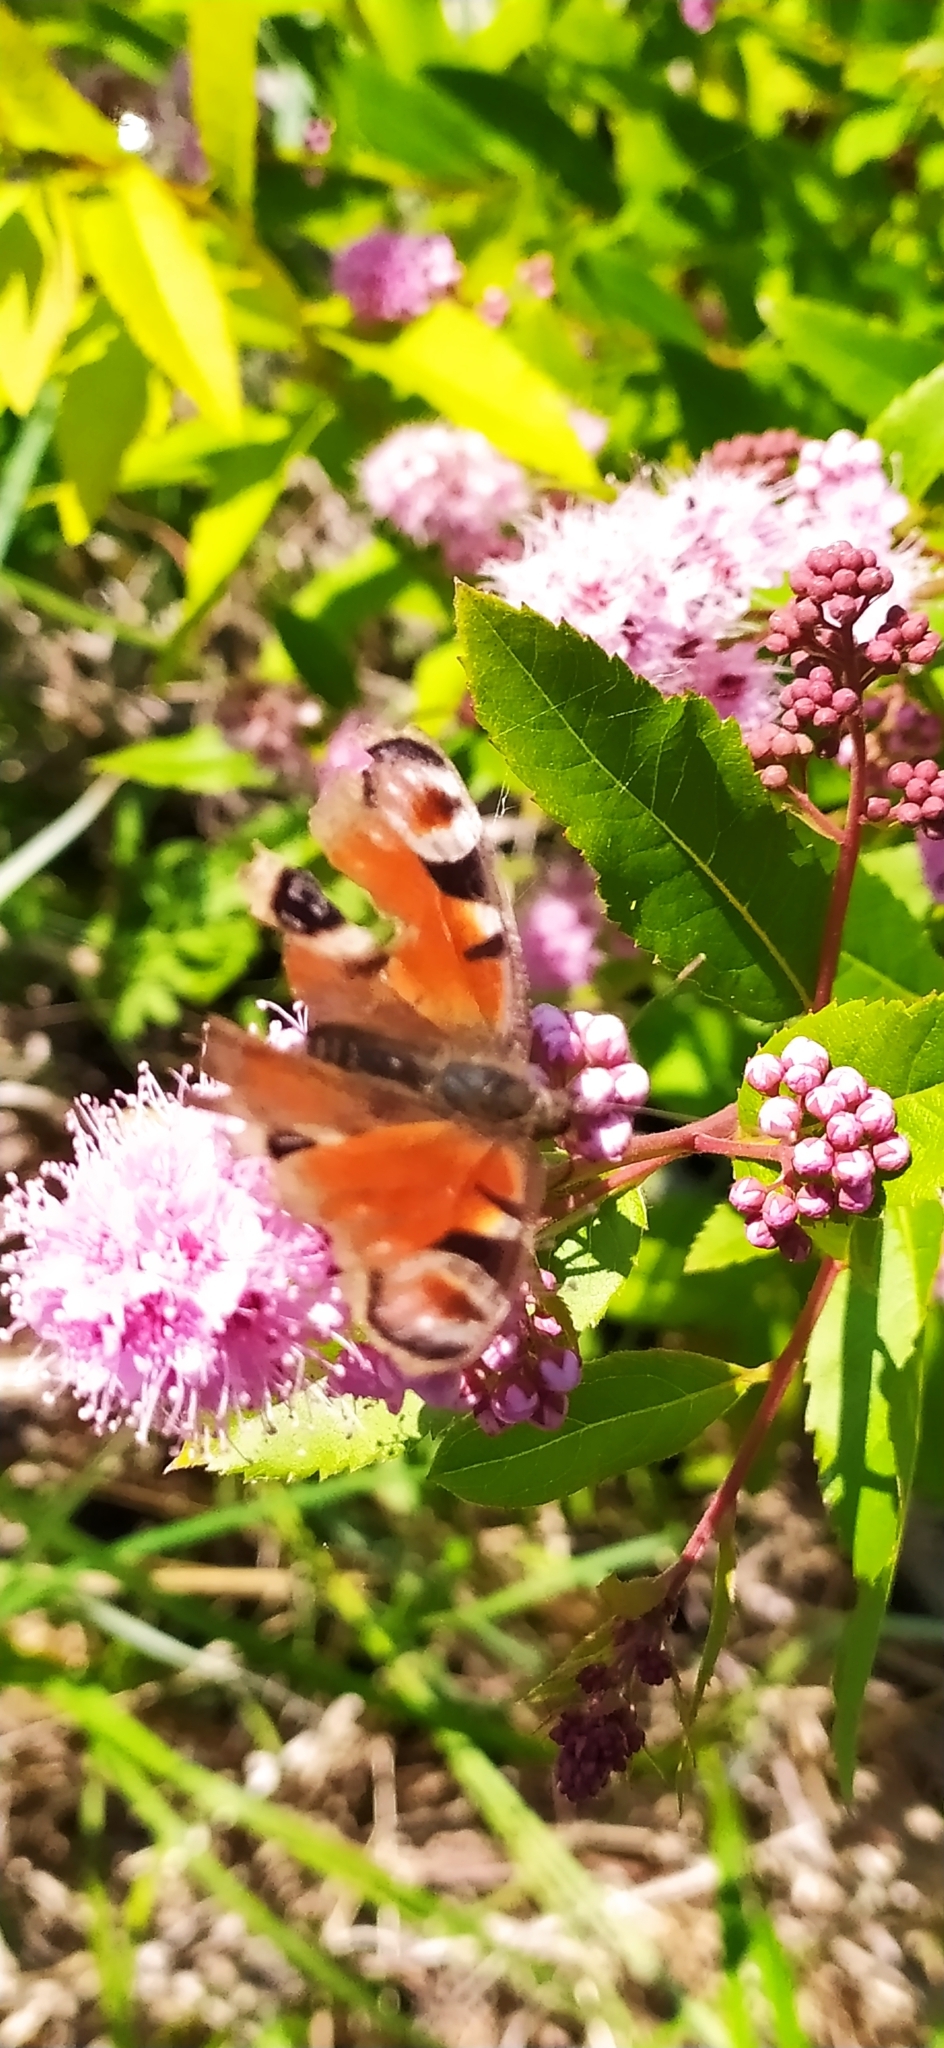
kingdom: Animalia
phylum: Arthropoda
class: Insecta
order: Lepidoptera
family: Nymphalidae
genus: Aglais
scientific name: Aglais io
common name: Peacock
